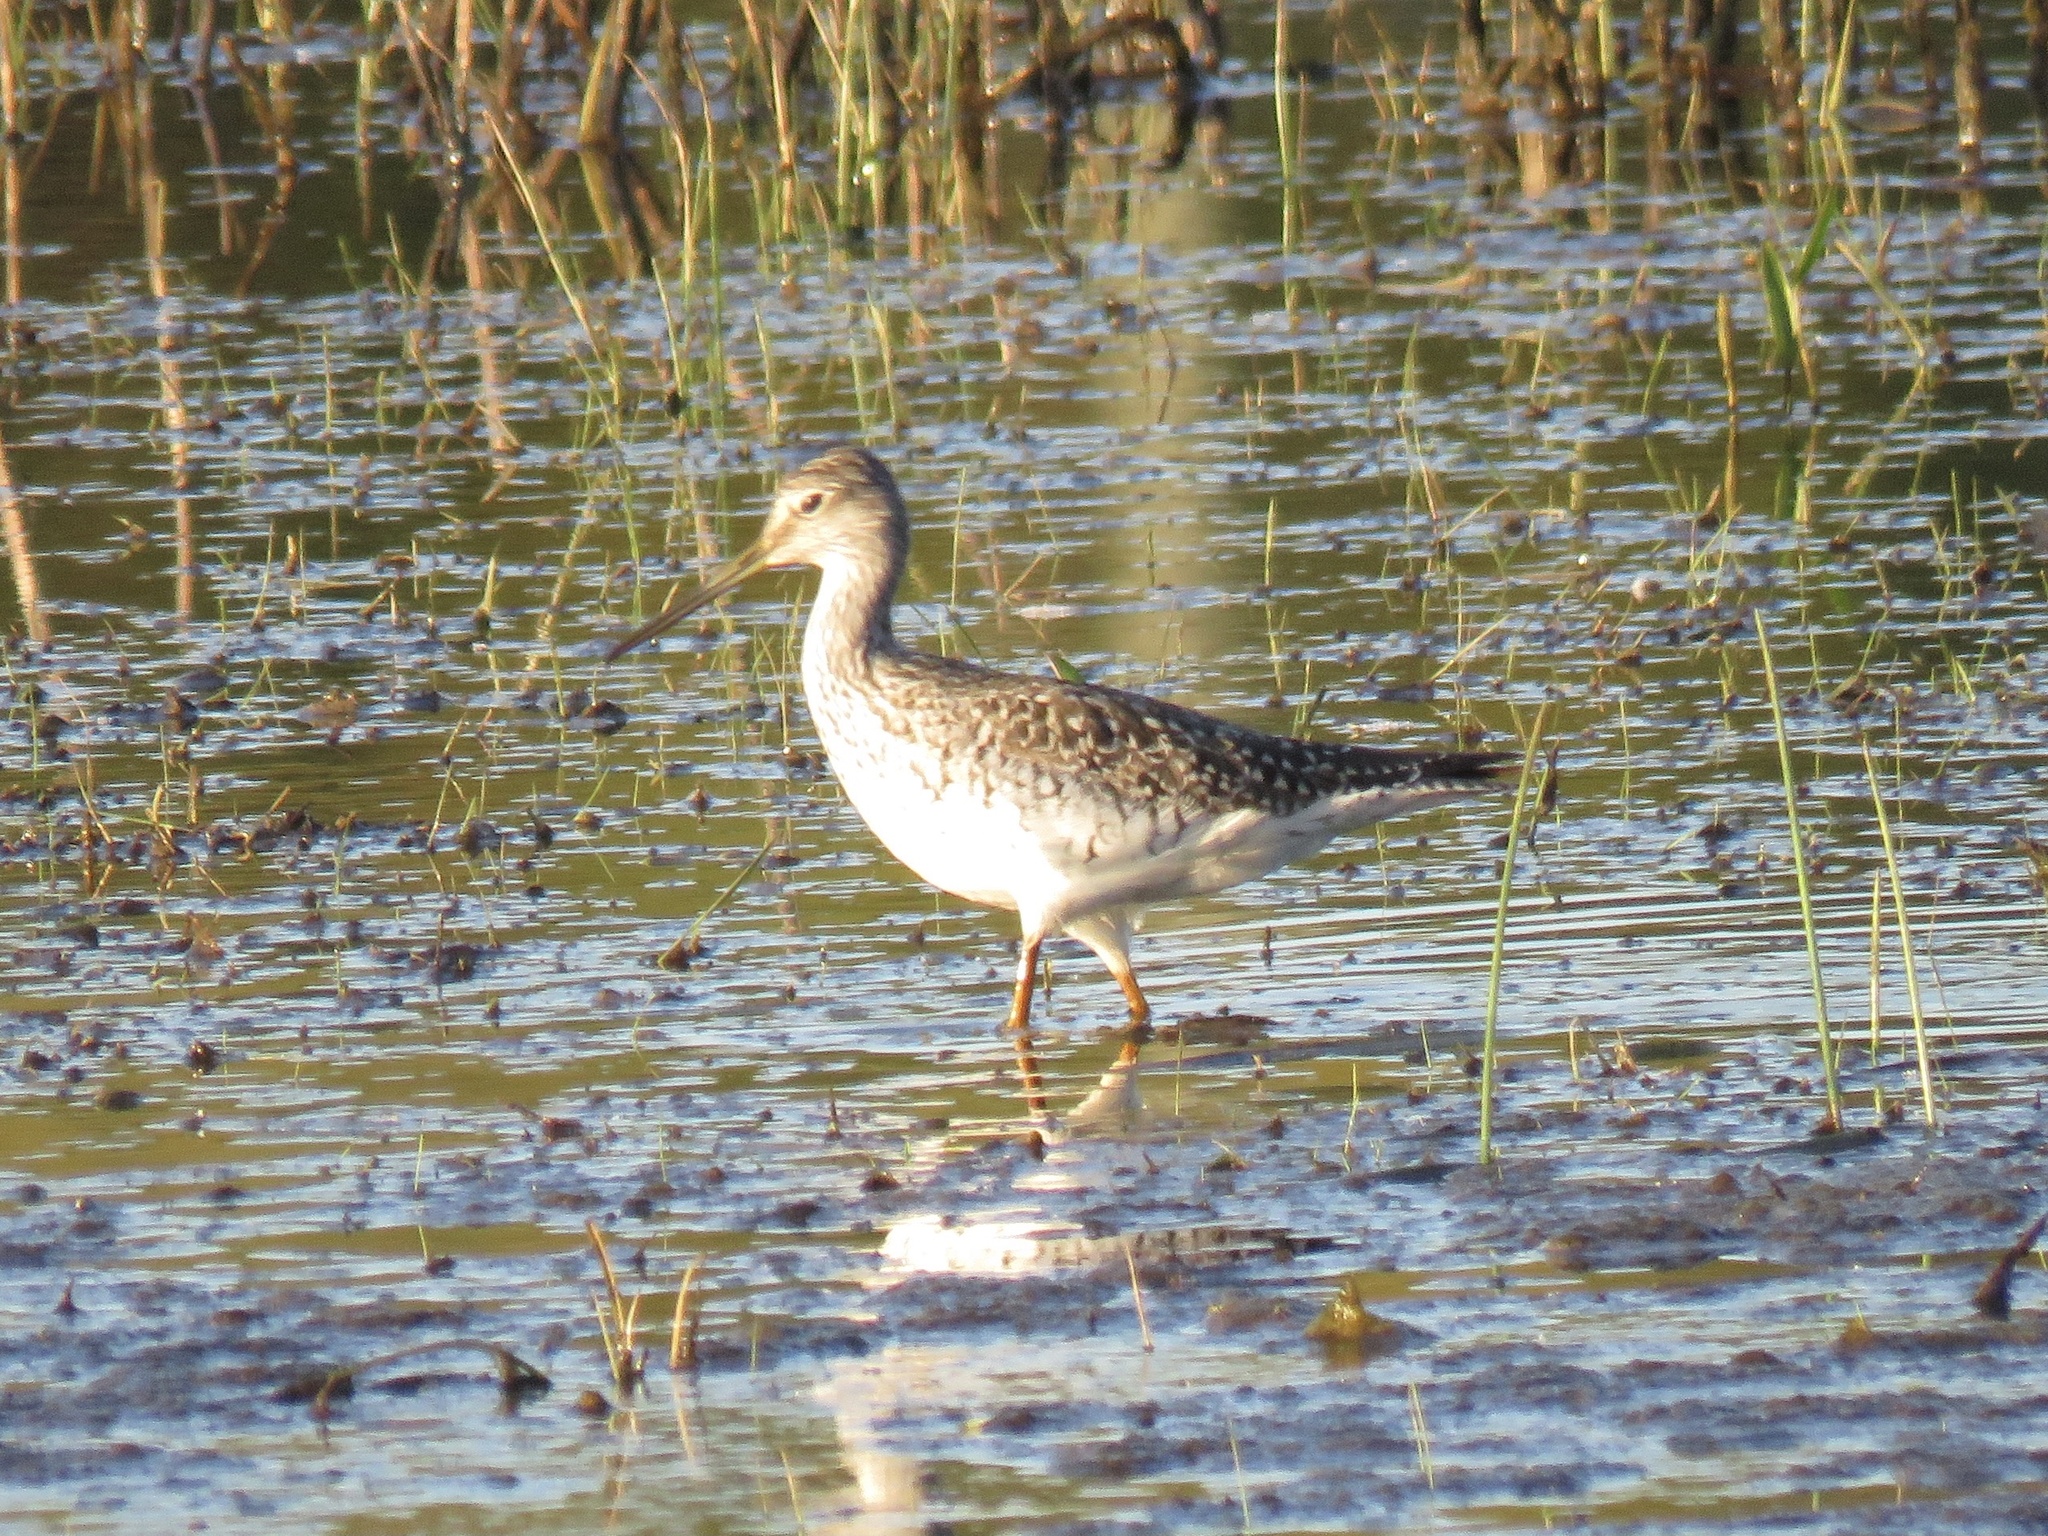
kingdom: Animalia
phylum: Chordata
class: Aves
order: Charadriiformes
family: Scolopacidae
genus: Tringa
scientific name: Tringa melanoleuca
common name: Greater yellowlegs
